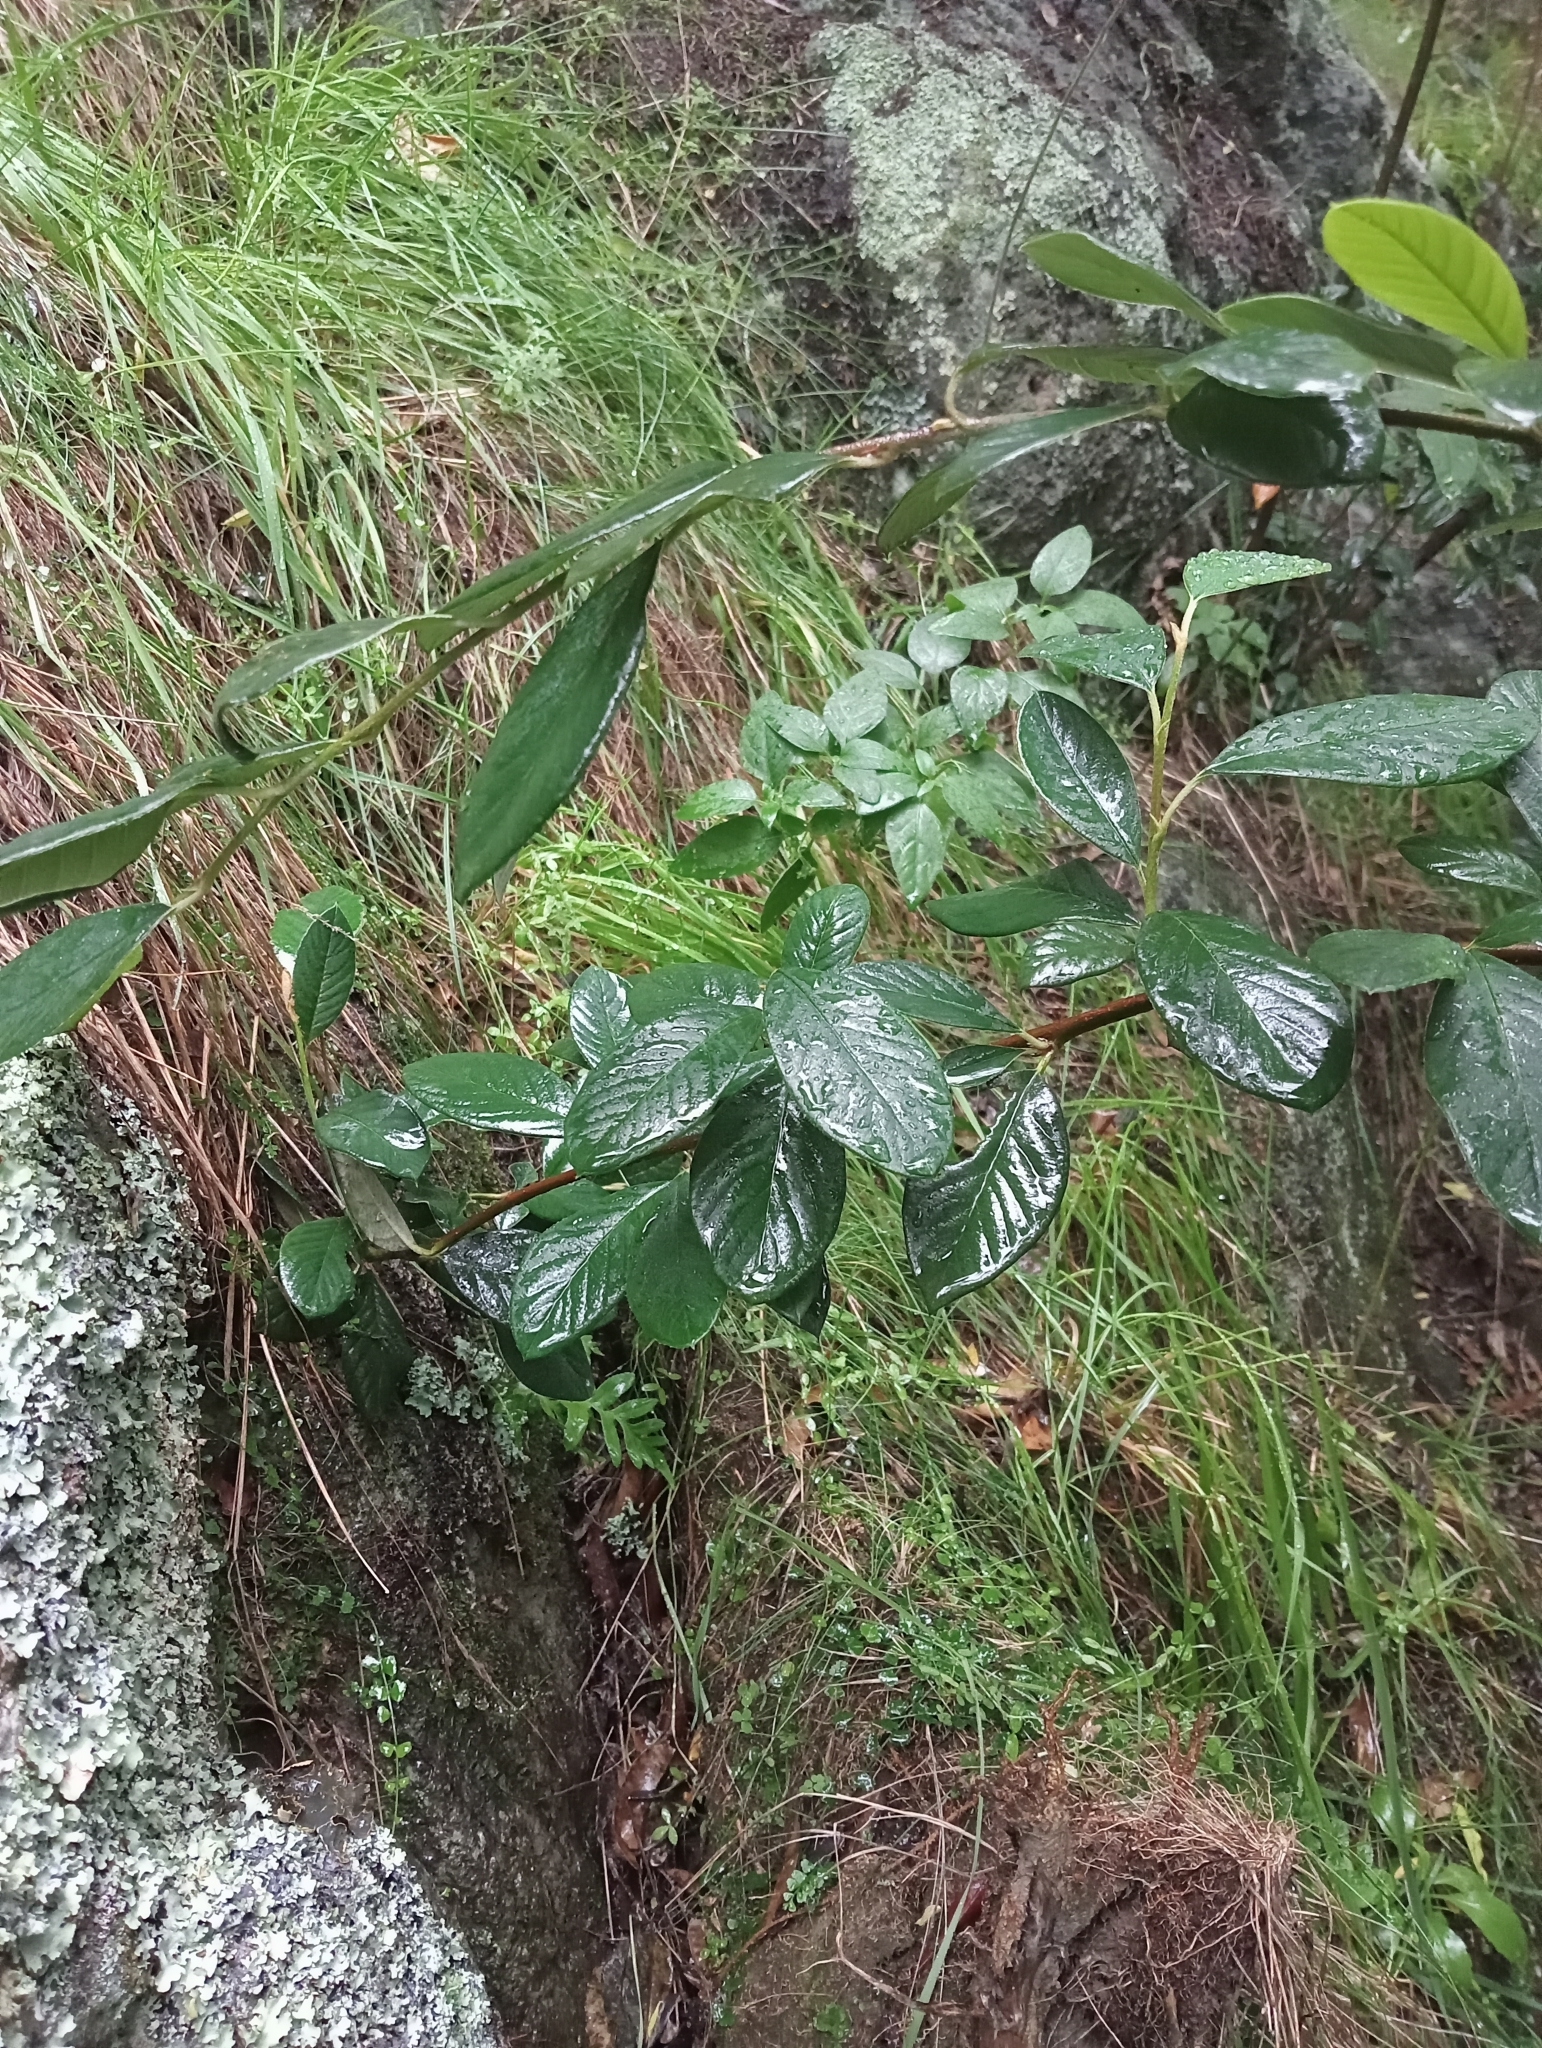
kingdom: Plantae
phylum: Tracheophyta
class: Magnoliopsida
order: Rosales
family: Rosaceae
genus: Cotoneaster
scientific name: Cotoneaster coriaceus
